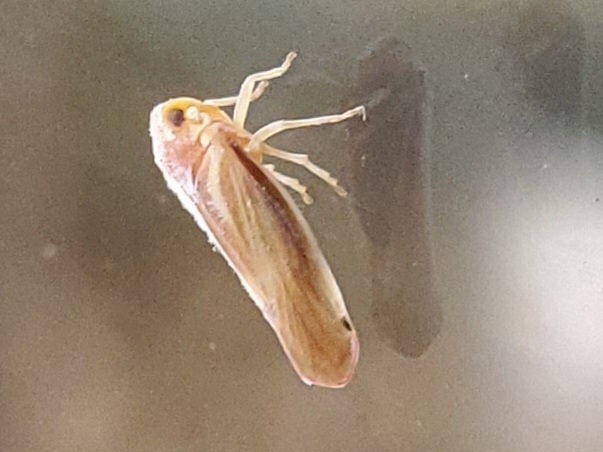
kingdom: Animalia
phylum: Arthropoda
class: Insecta
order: Hemiptera
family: Derbidae
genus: Omolicna
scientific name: Omolicna uhleri
